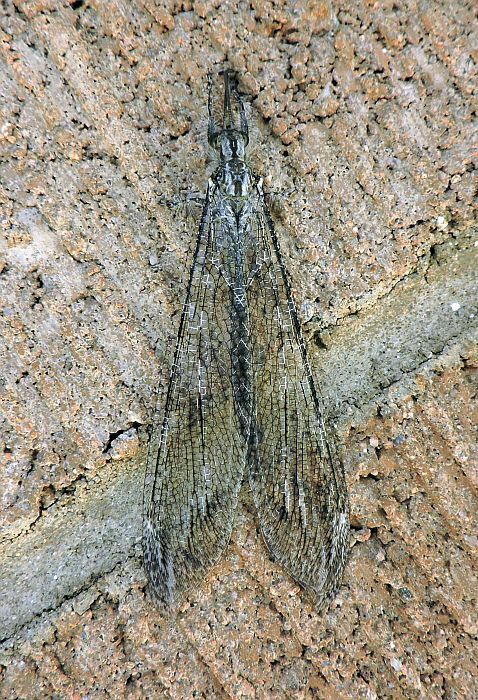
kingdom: Animalia
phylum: Arthropoda
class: Insecta
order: Neuroptera
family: Myrmeleontidae
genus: Vella
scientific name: Vella fallax
